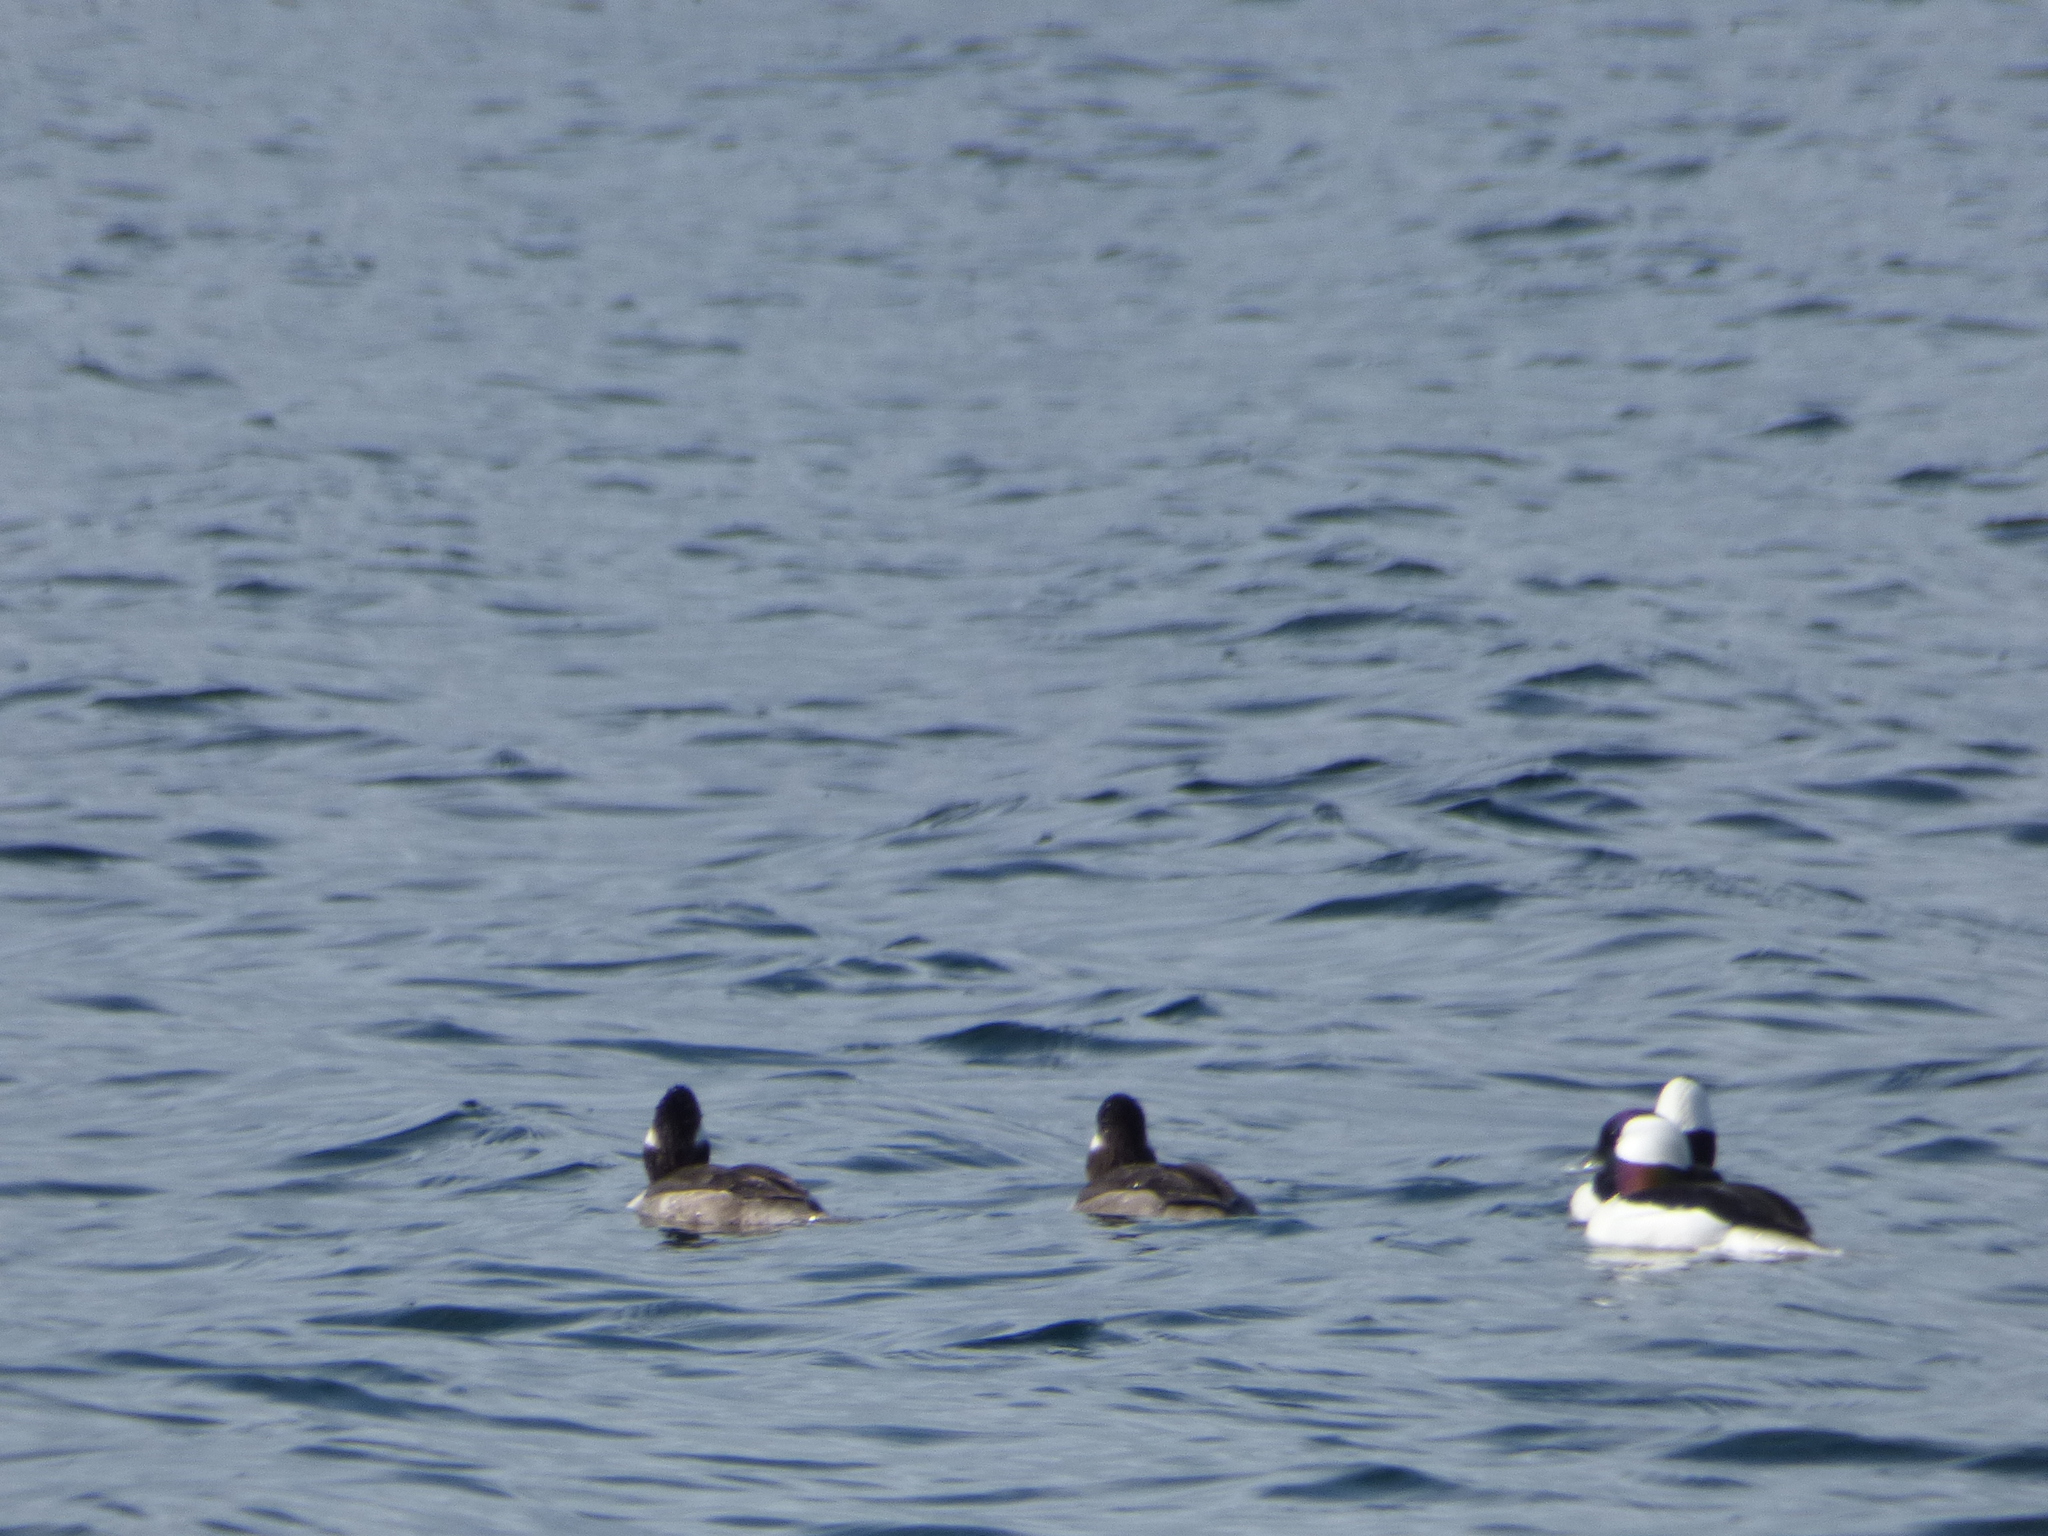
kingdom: Animalia
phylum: Chordata
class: Aves
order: Anseriformes
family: Anatidae
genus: Bucephala
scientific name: Bucephala albeola
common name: Bufflehead
